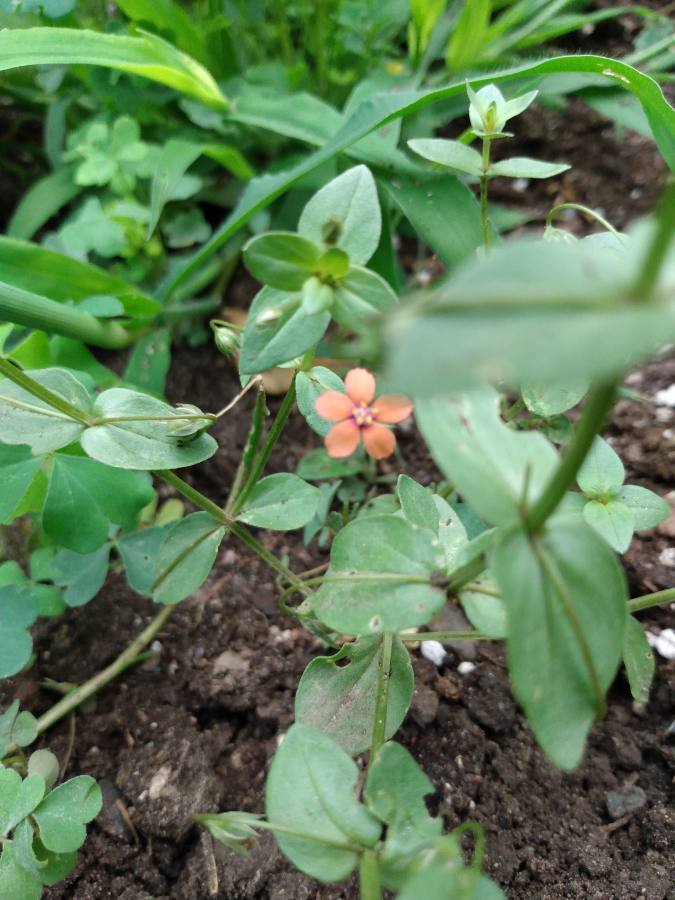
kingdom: Plantae
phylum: Tracheophyta
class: Magnoliopsida
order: Ericales
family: Primulaceae
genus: Lysimachia
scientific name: Lysimachia arvensis
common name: Scarlet pimpernel
